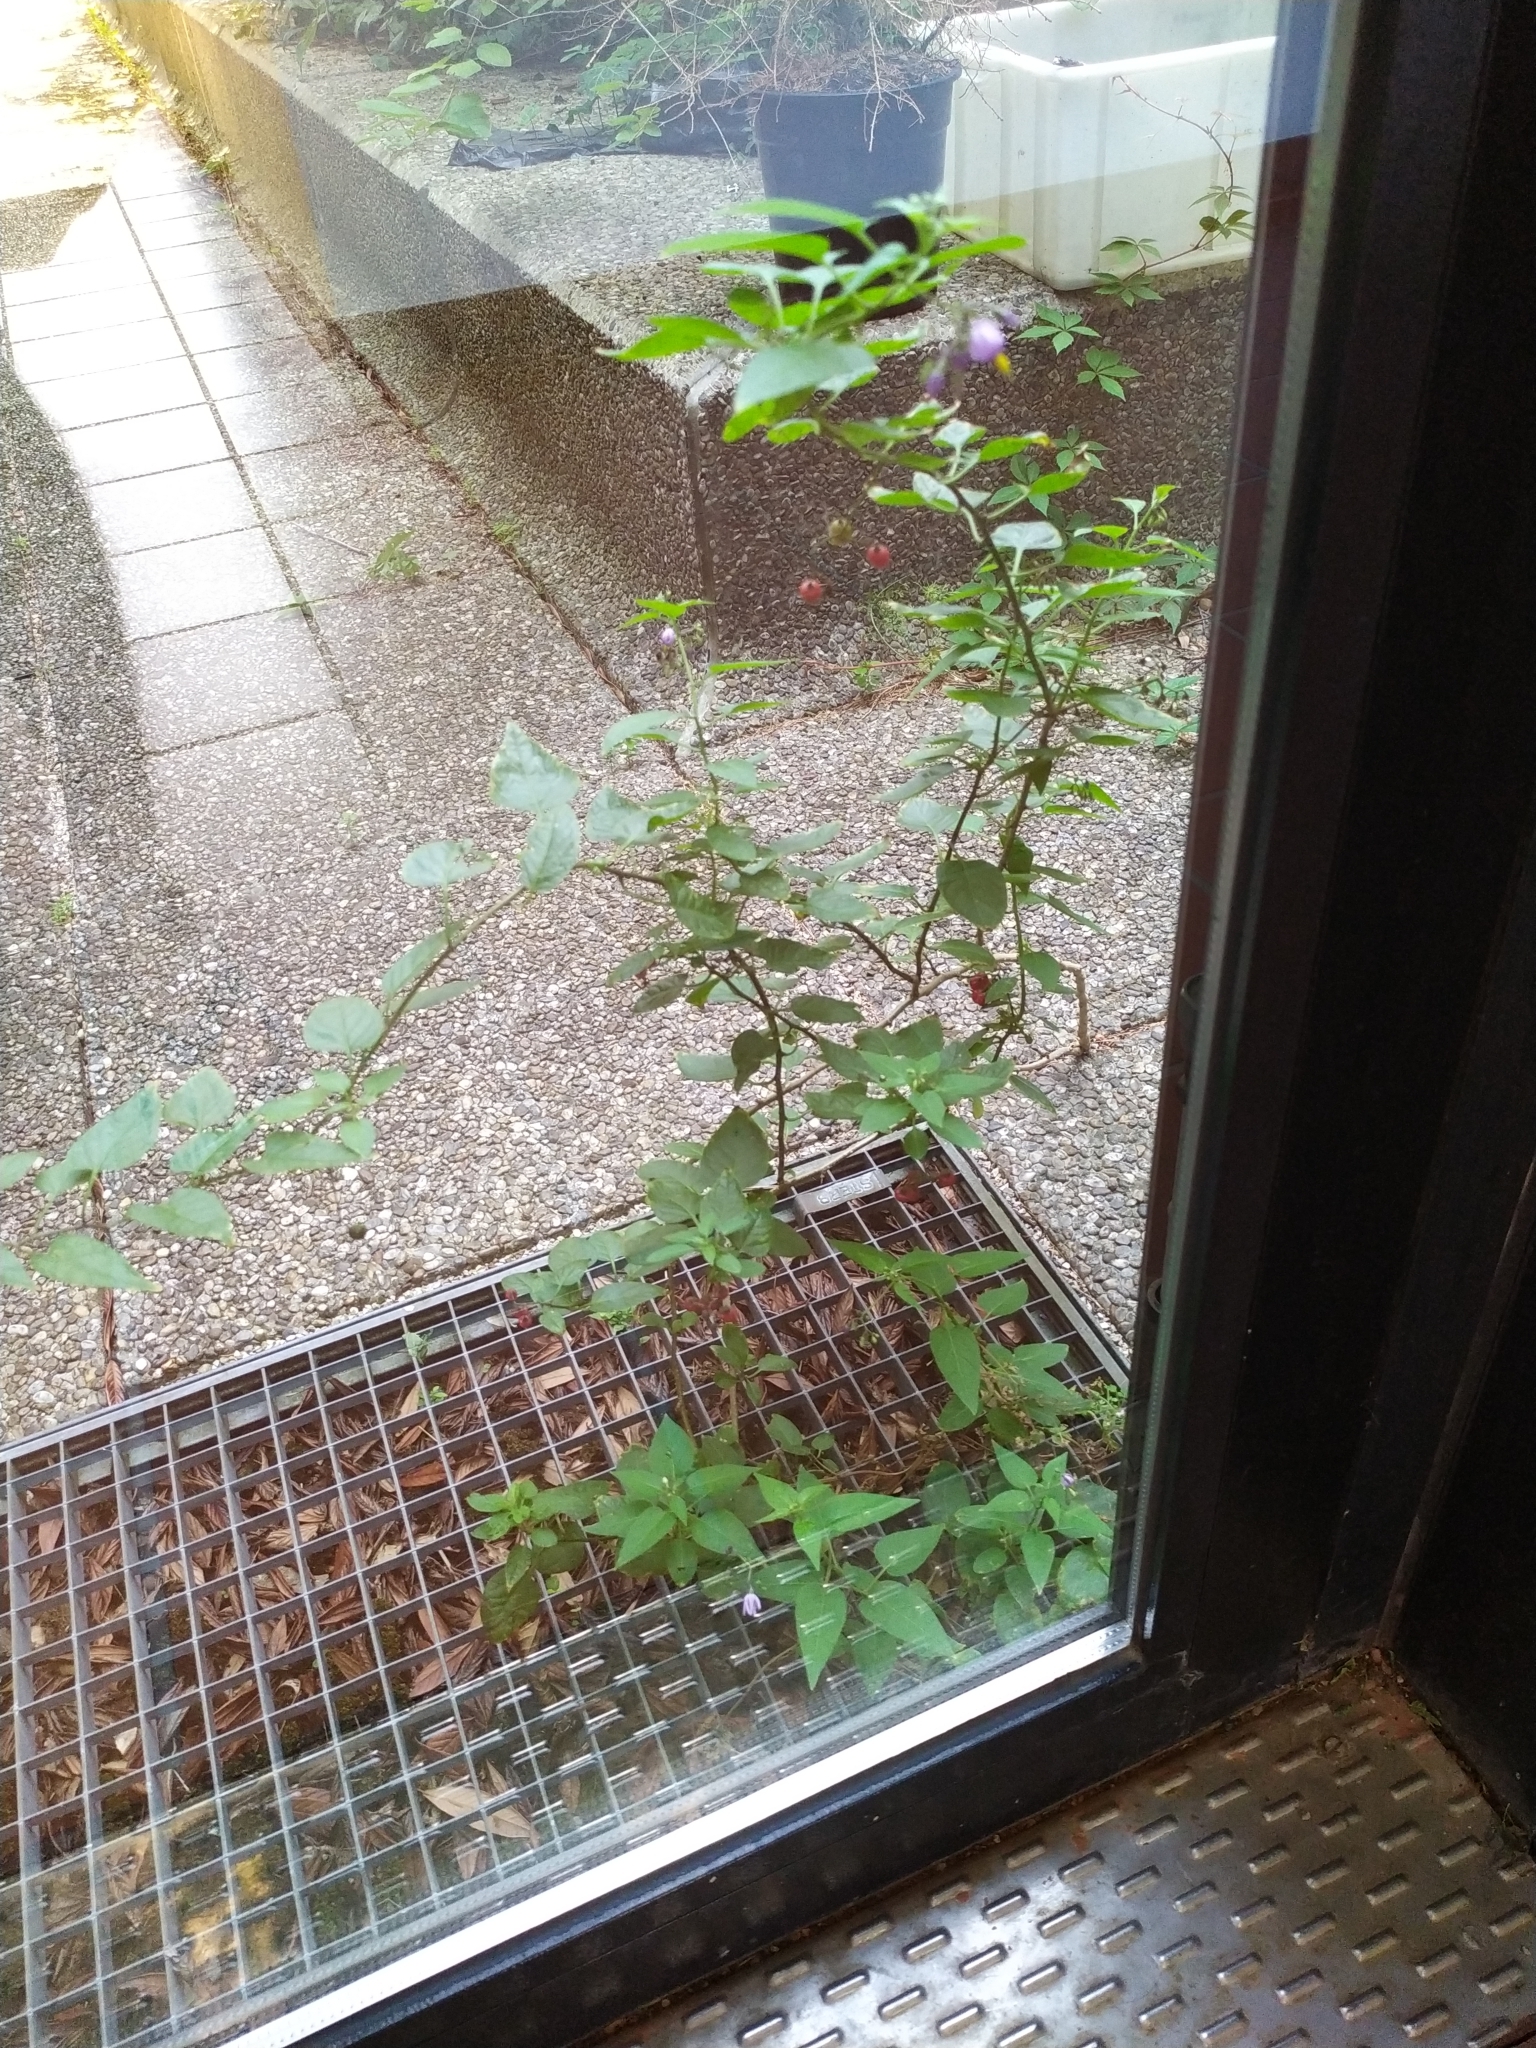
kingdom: Plantae
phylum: Tracheophyta
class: Magnoliopsida
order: Solanales
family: Solanaceae
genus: Solanum
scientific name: Solanum dulcamara
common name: Climbing nightshade
